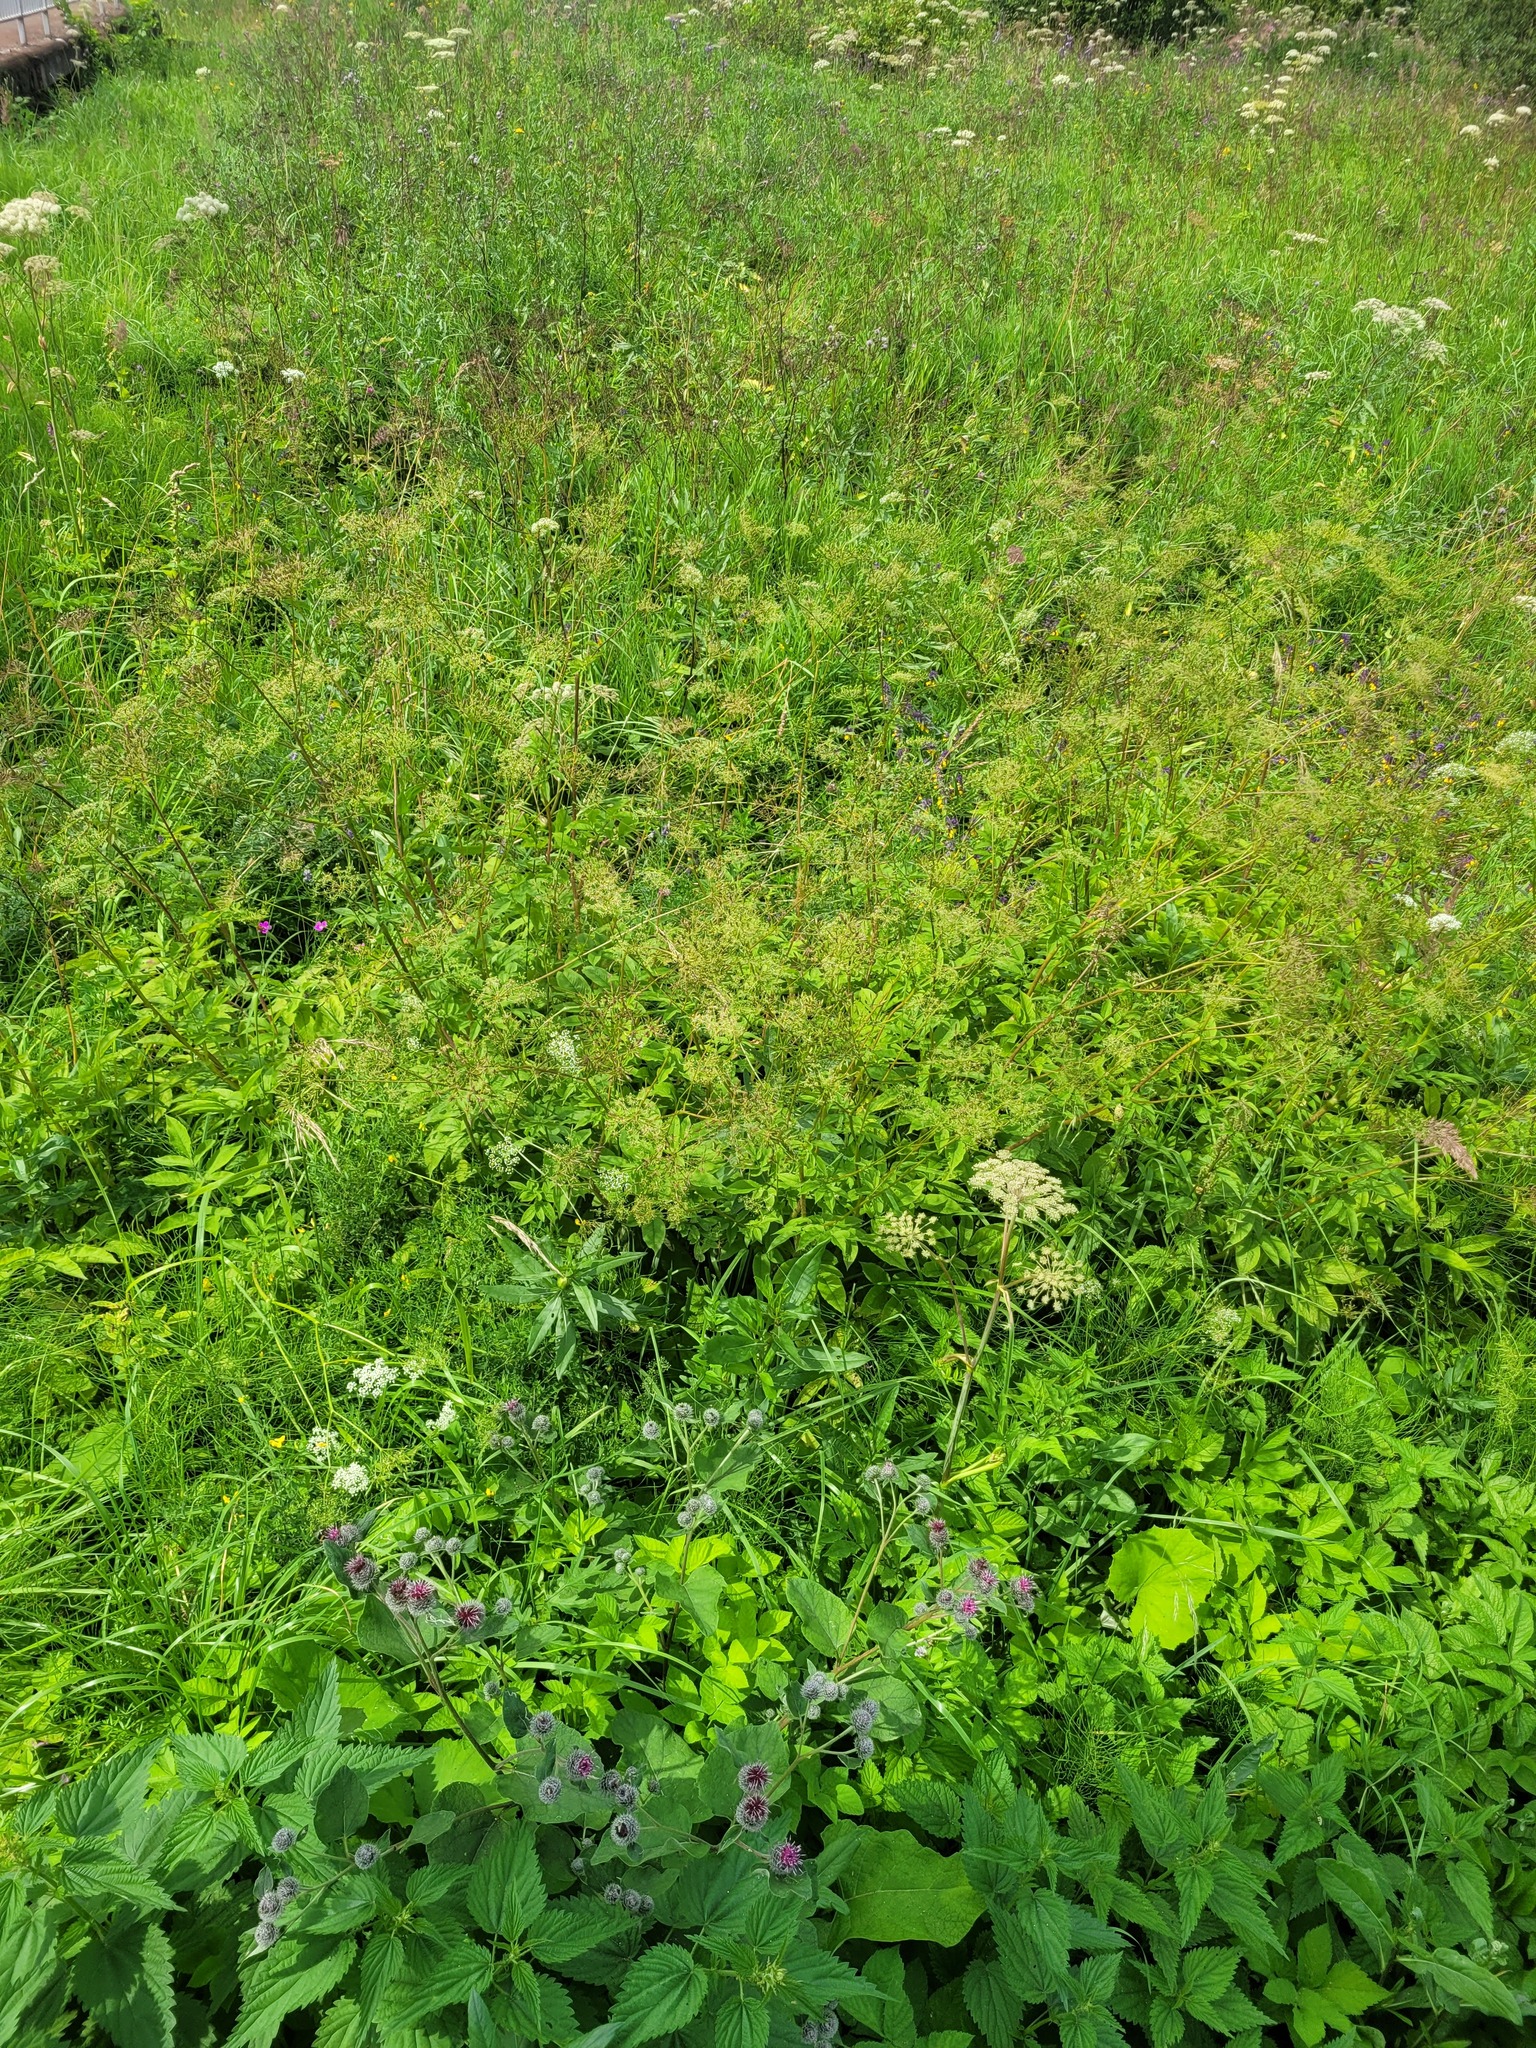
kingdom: Plantae
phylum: Tracheophyta
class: Magnoliopsida
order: Apiales
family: Apiaceae
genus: Aegopodium
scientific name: Aegopodium podagraria
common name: Ground-elder
